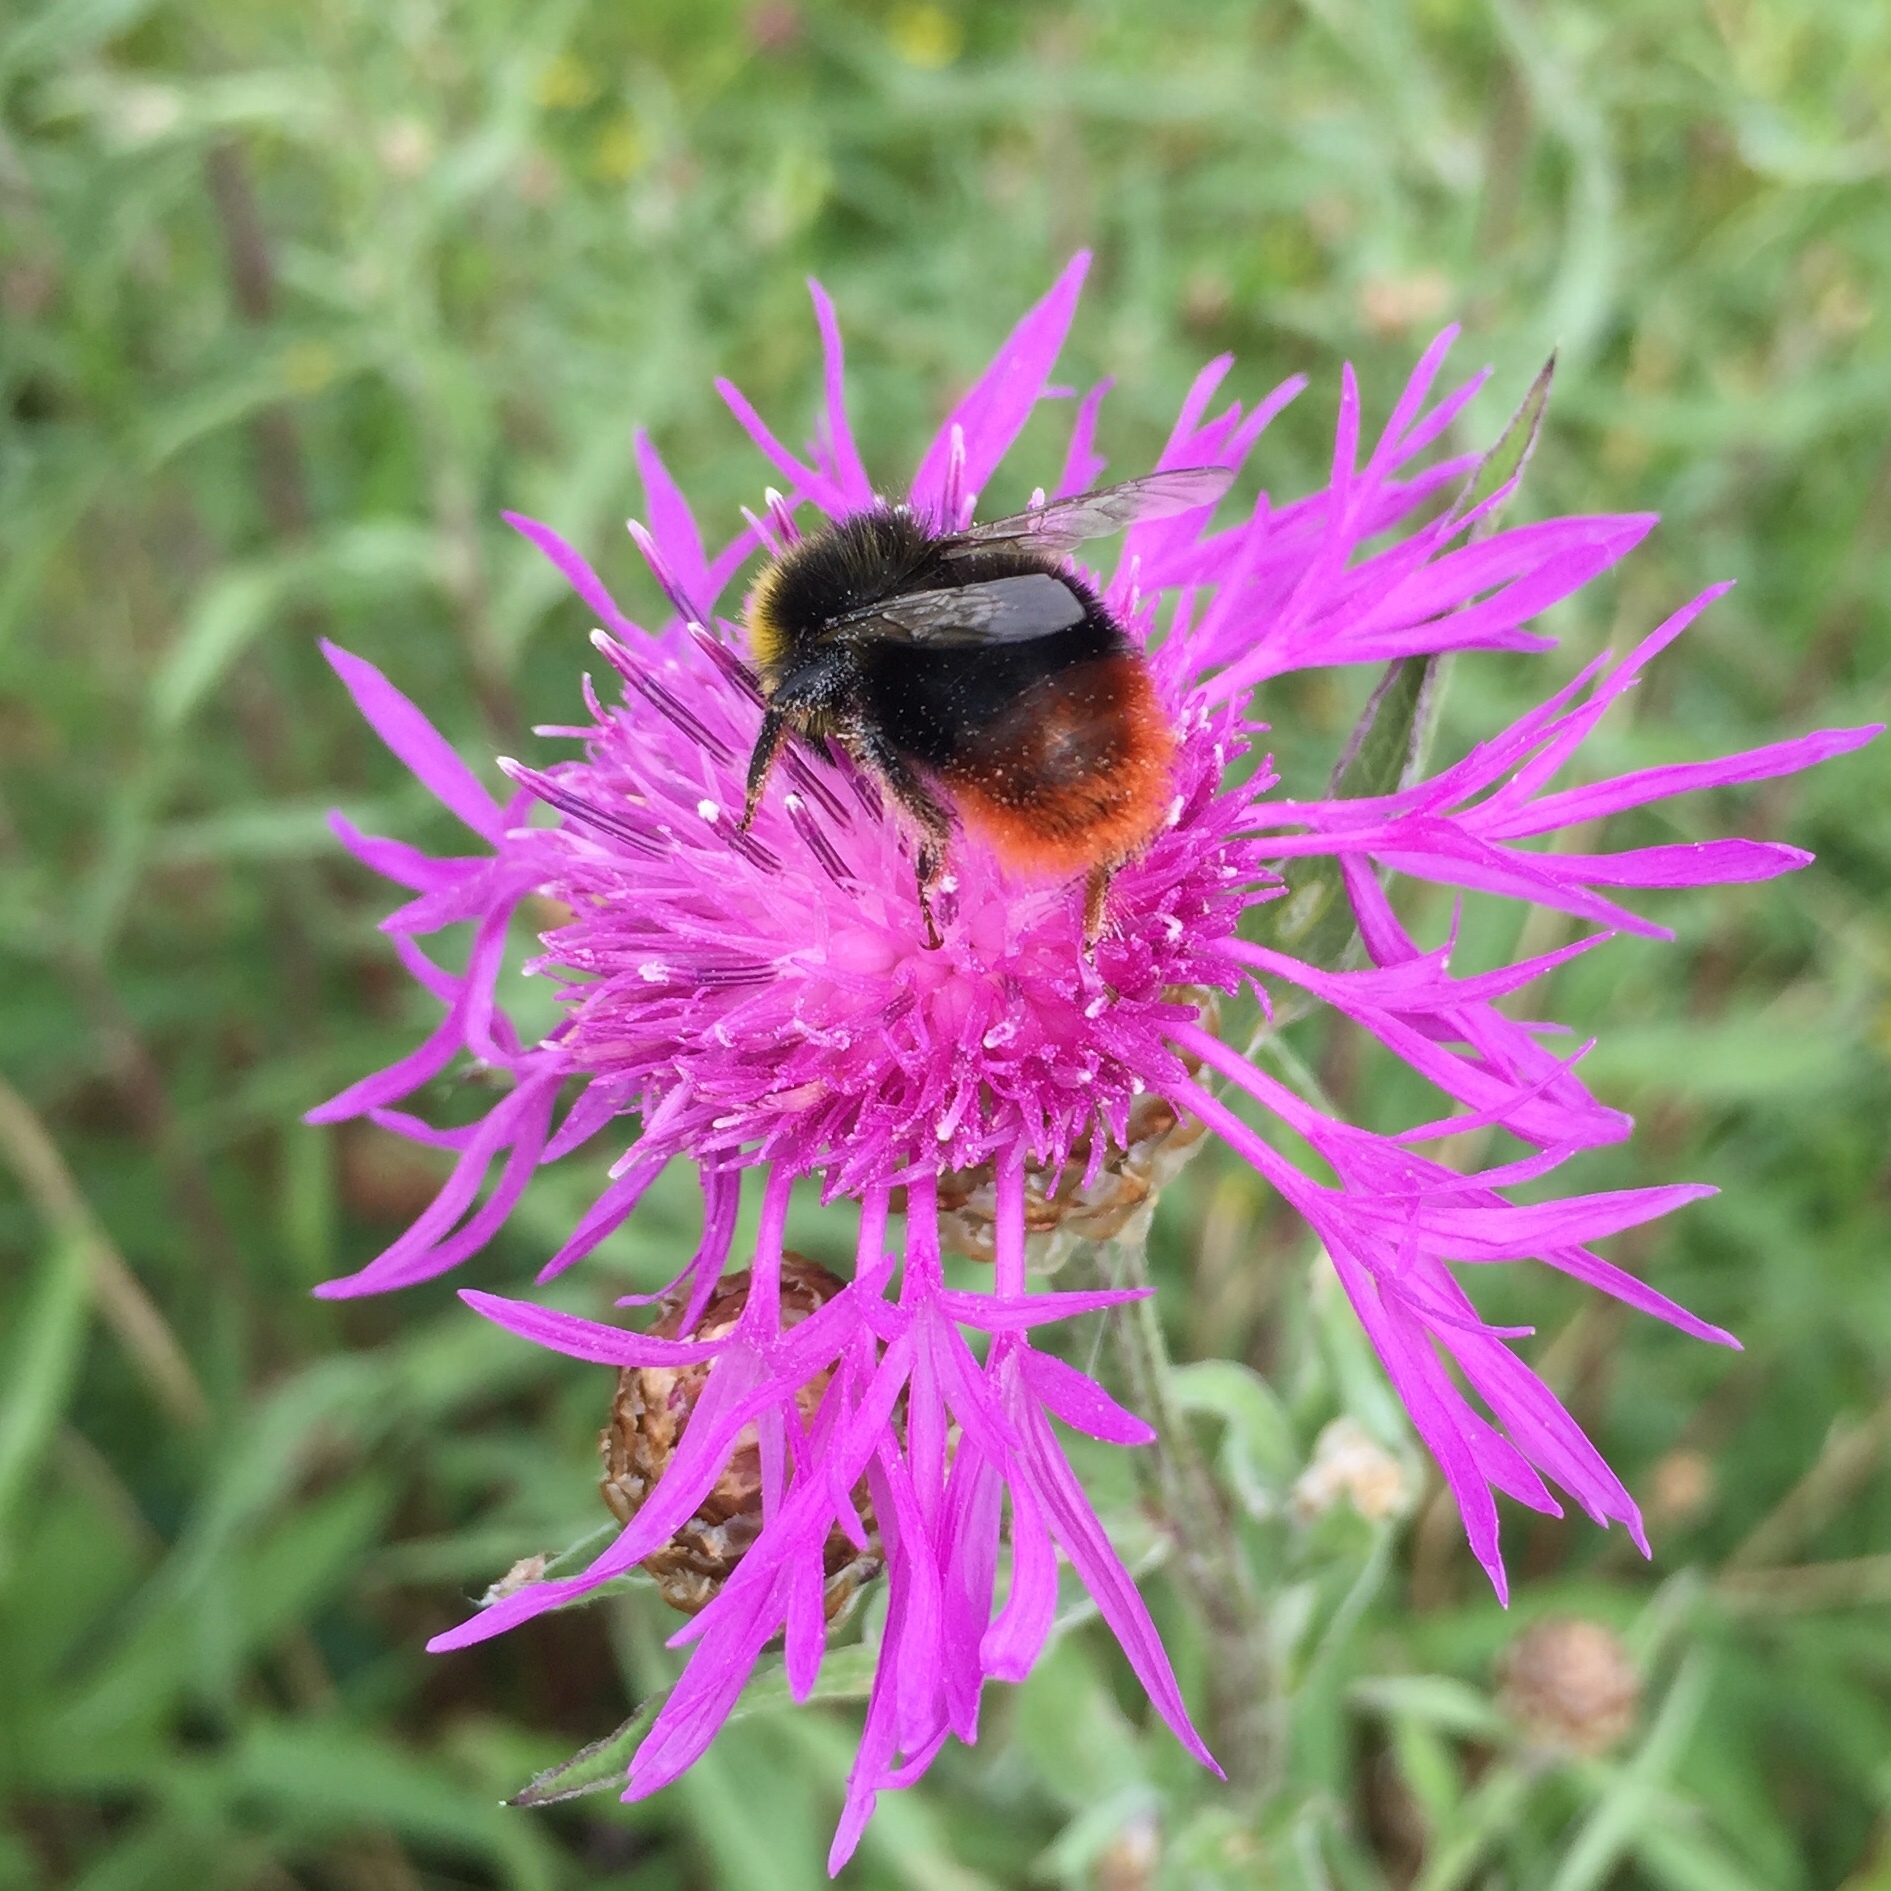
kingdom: Animalia
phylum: Arthropoda
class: Insecta
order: Hymenoptera
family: Apidae
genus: Bombus
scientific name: Bombus lapidarius
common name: Large red-tailed humble-bee
